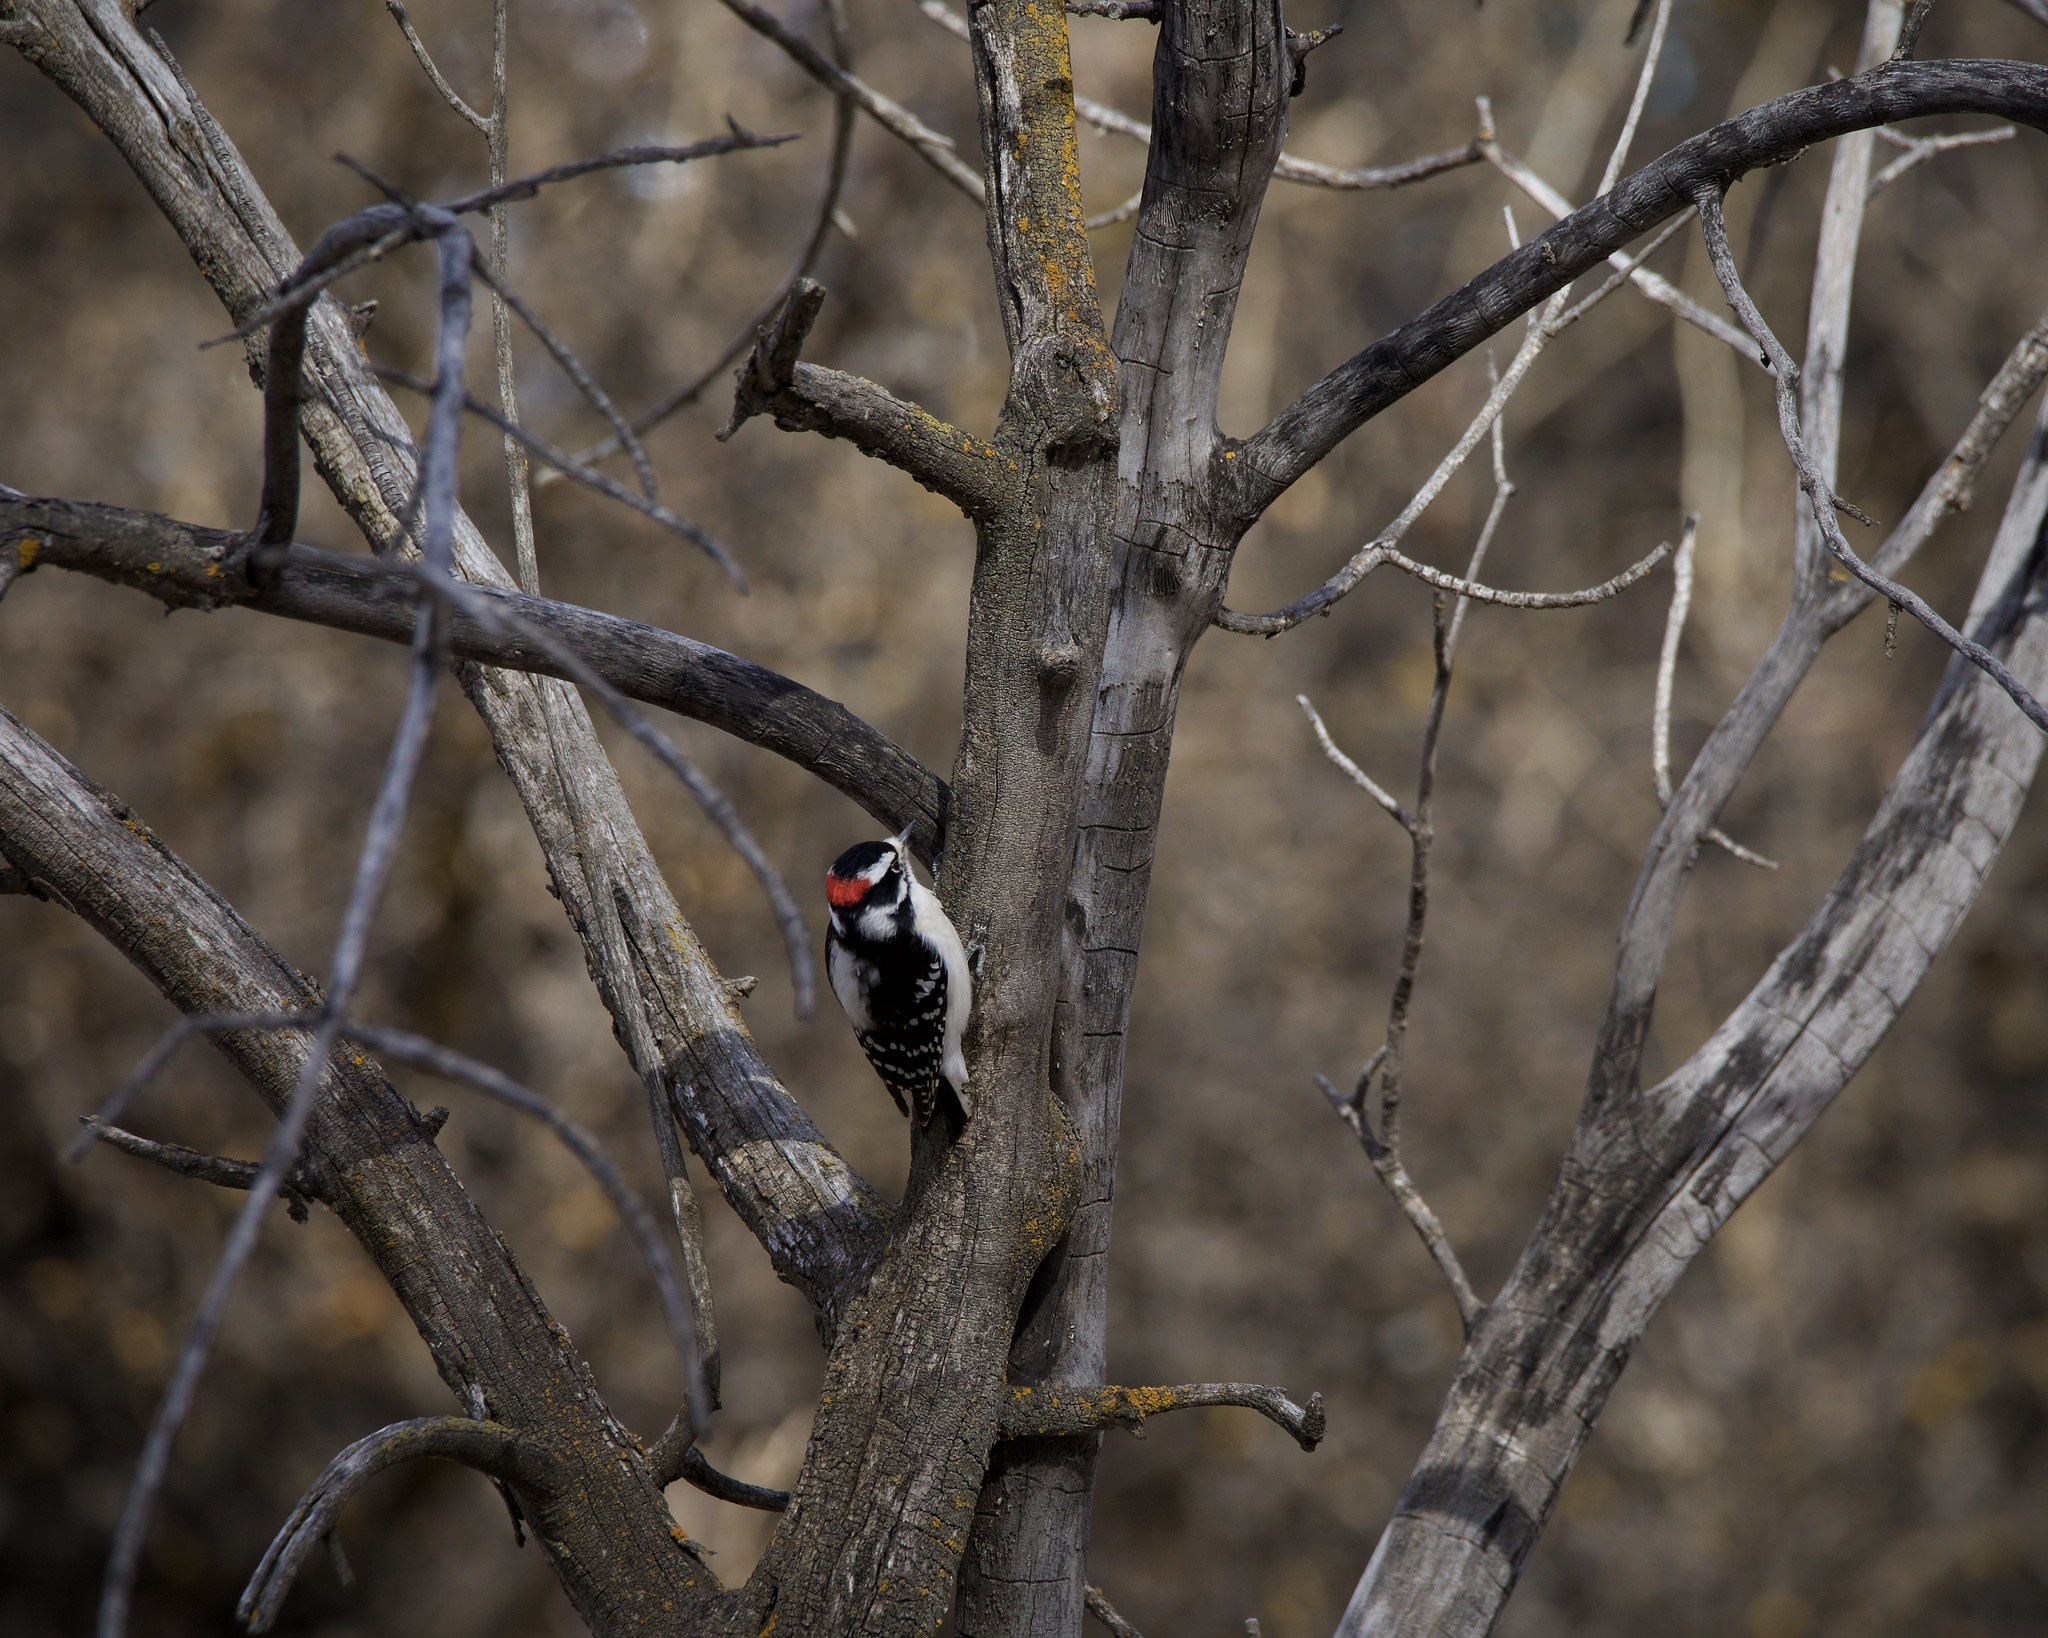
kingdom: Animalia
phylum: Chordata
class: Aves
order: Piciformes
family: Picidae
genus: Dryobates
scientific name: Dryobates pubescens
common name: Downy woodpecker
